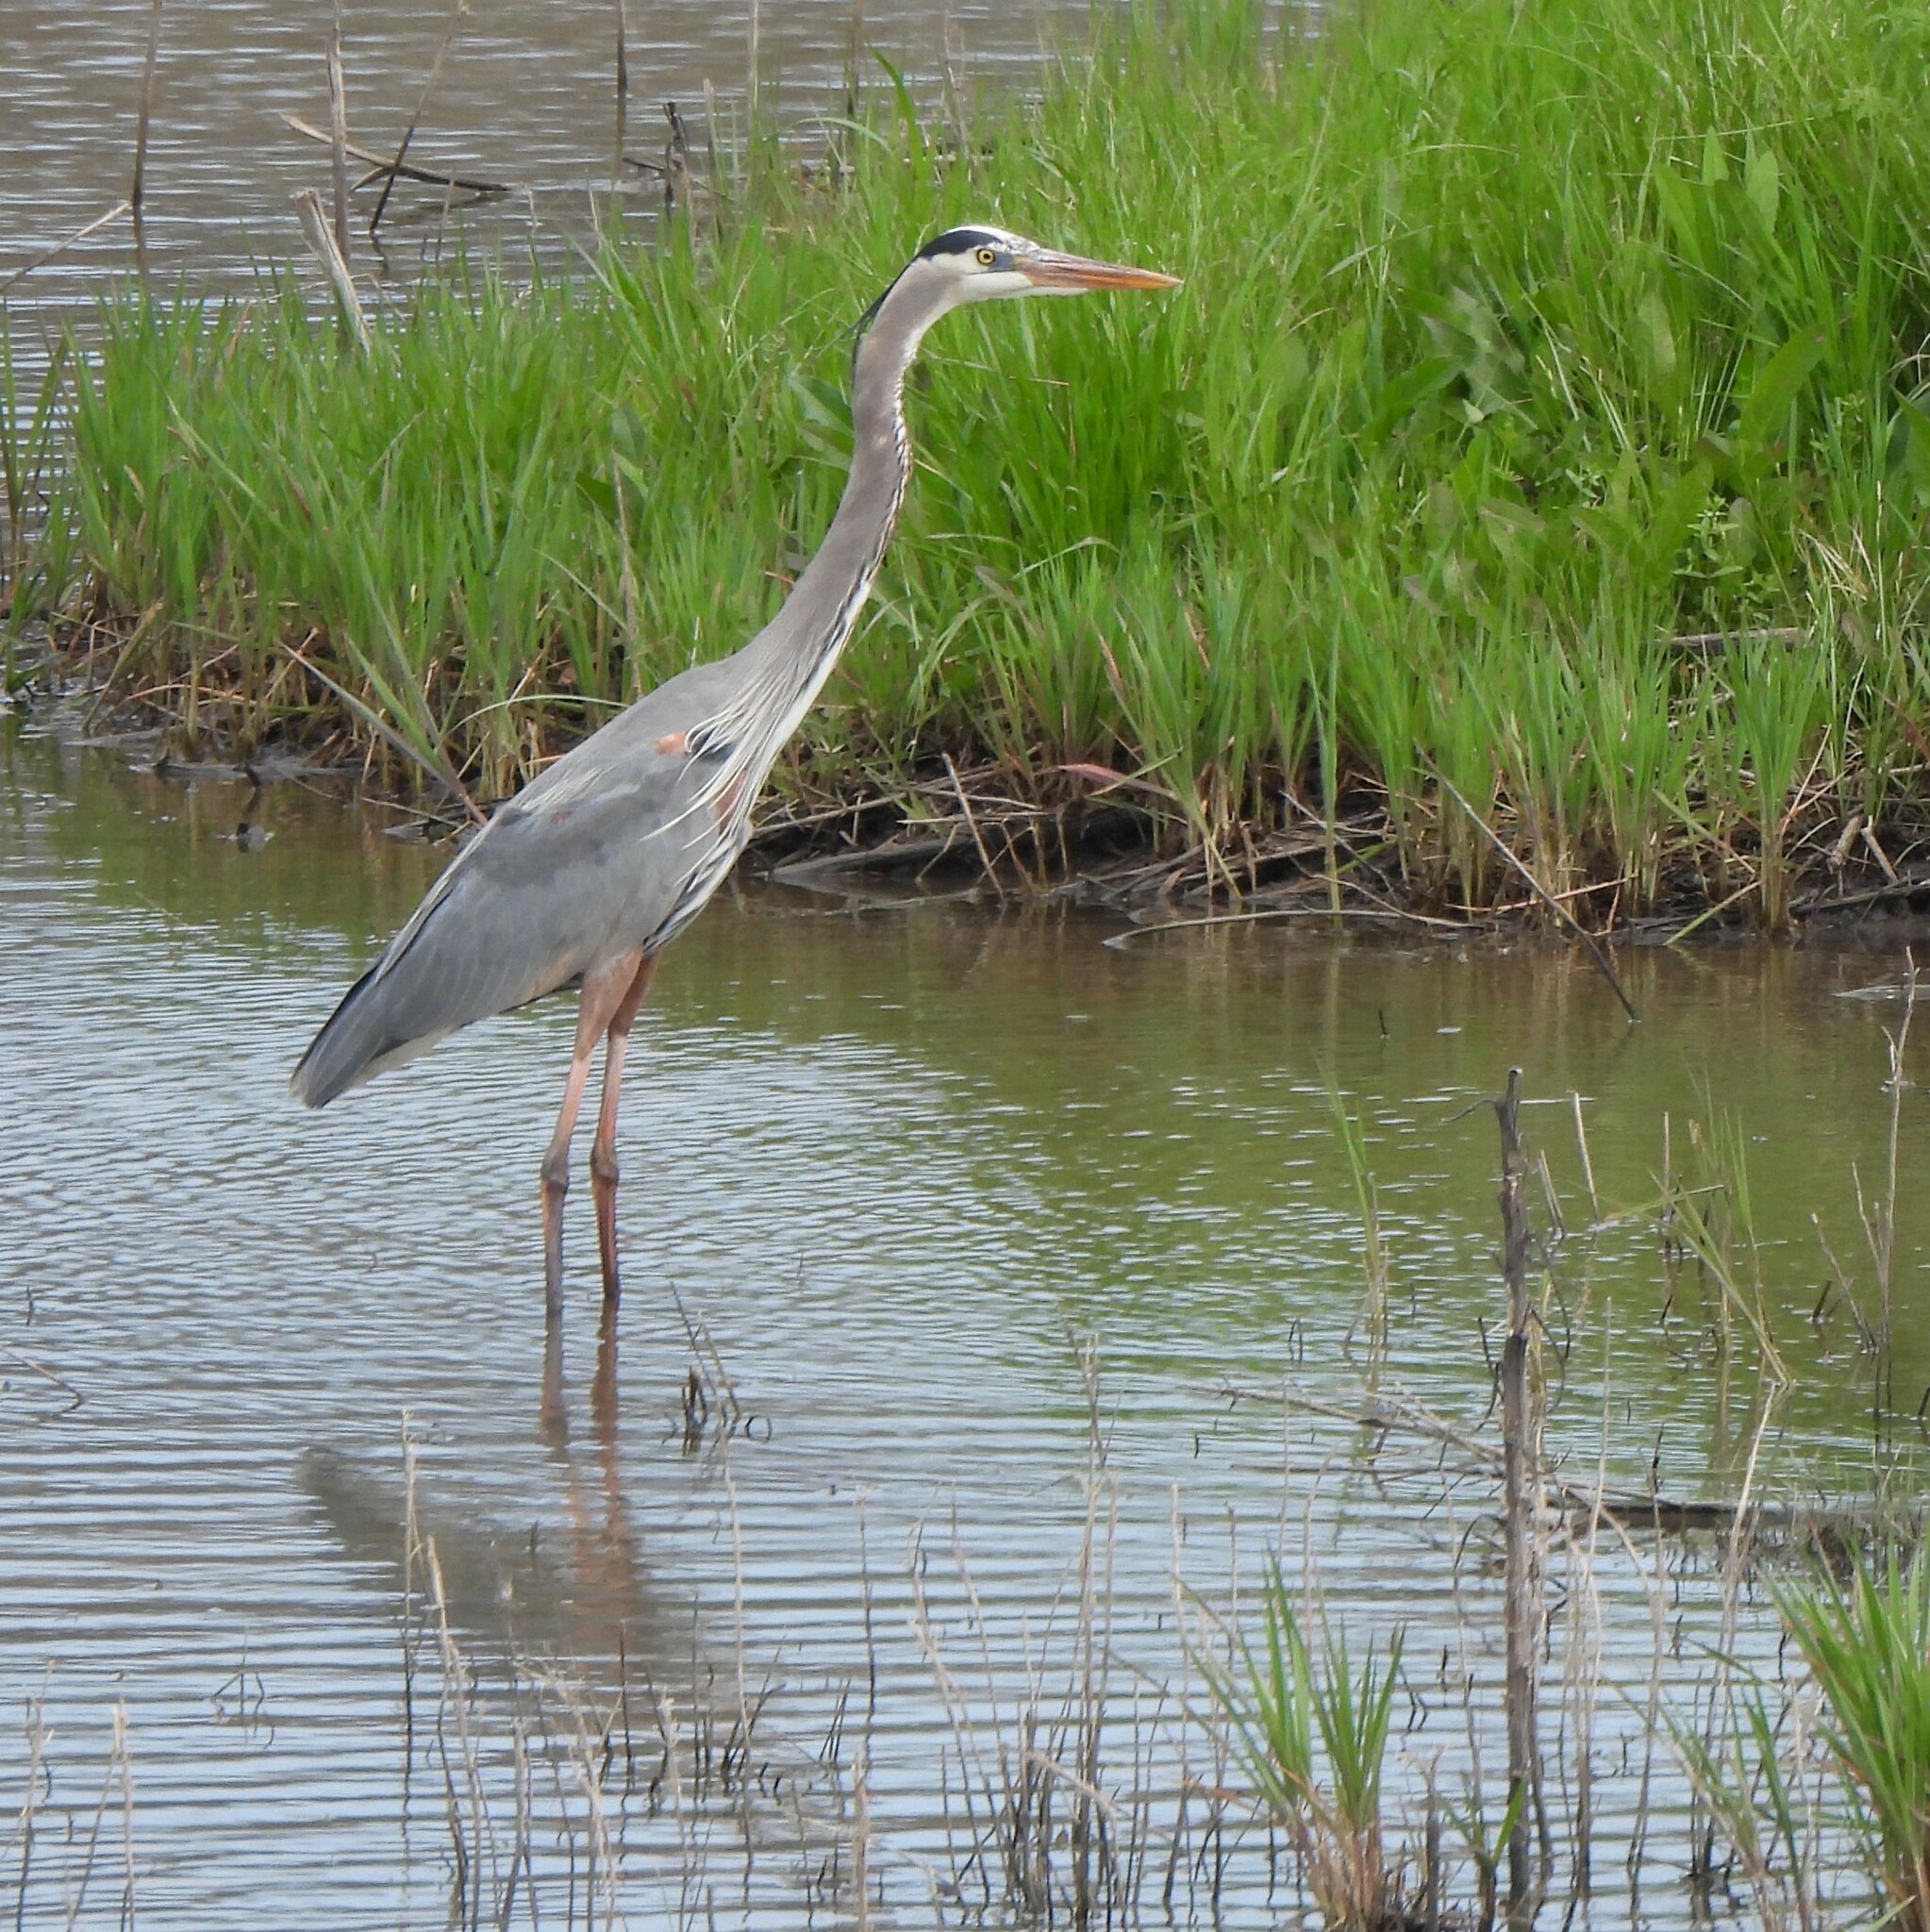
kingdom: Animalia
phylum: Chordata
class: Aves
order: Pelecaniformes
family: Ardeidae
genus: Ardea
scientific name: Ardea herodias
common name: Great blue heron
